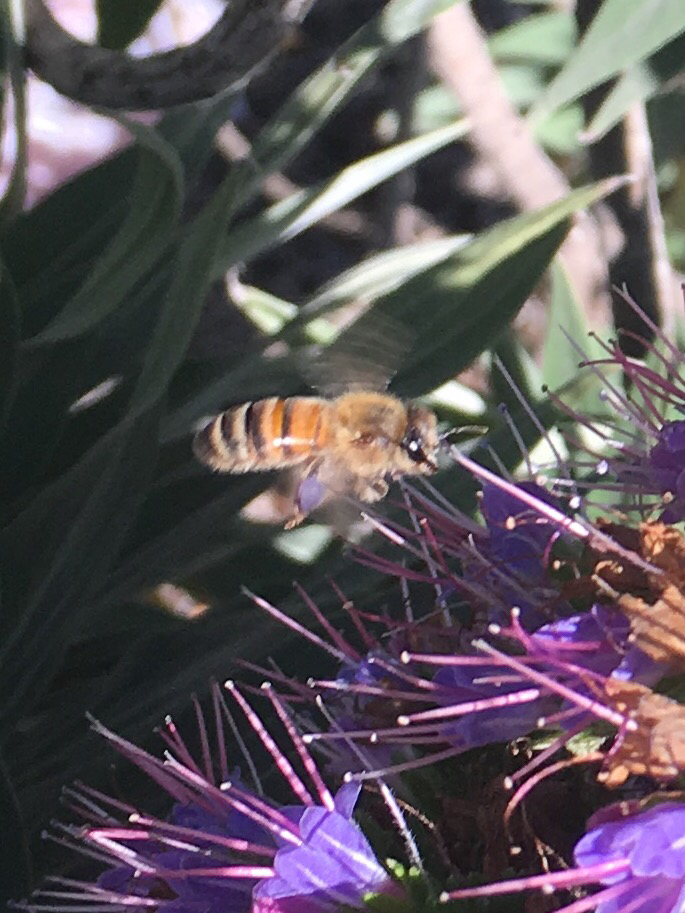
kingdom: Animalia
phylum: Arthropoda
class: Insecta
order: Hymenoptera
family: Apidae
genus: Apis
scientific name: Apis mellifera
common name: Honey bee
